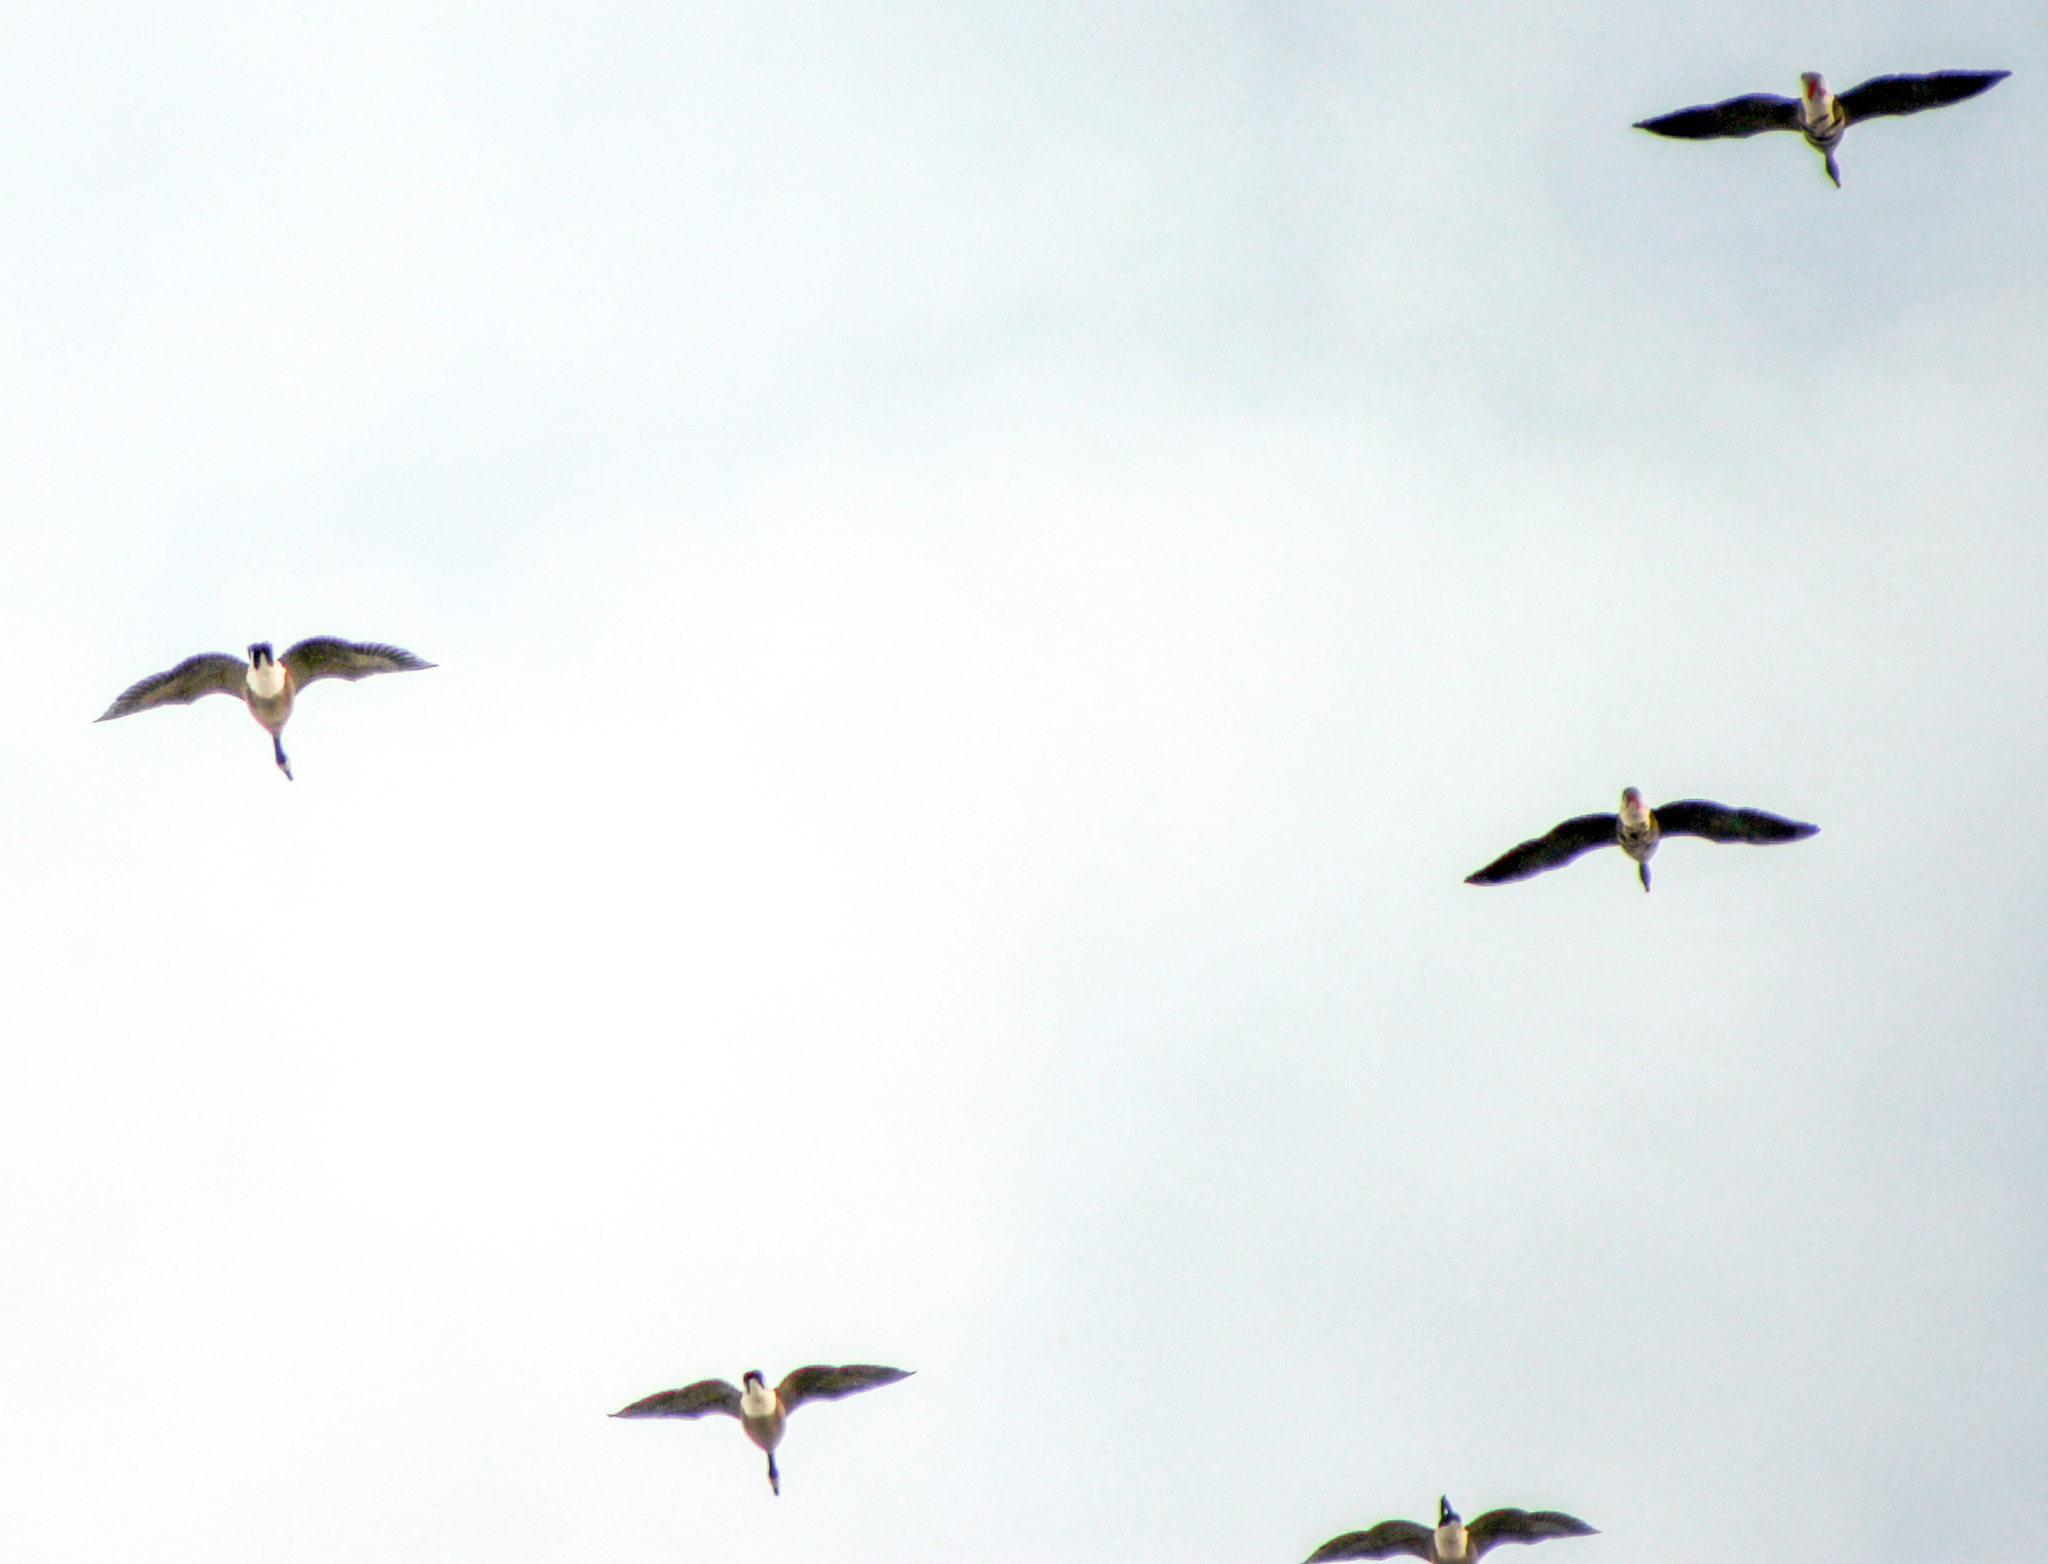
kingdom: Animalia
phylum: Chordata
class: Aves
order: Anseriformes
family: Anatidae
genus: Branta
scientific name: Branta canadensis
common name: Canada goose
